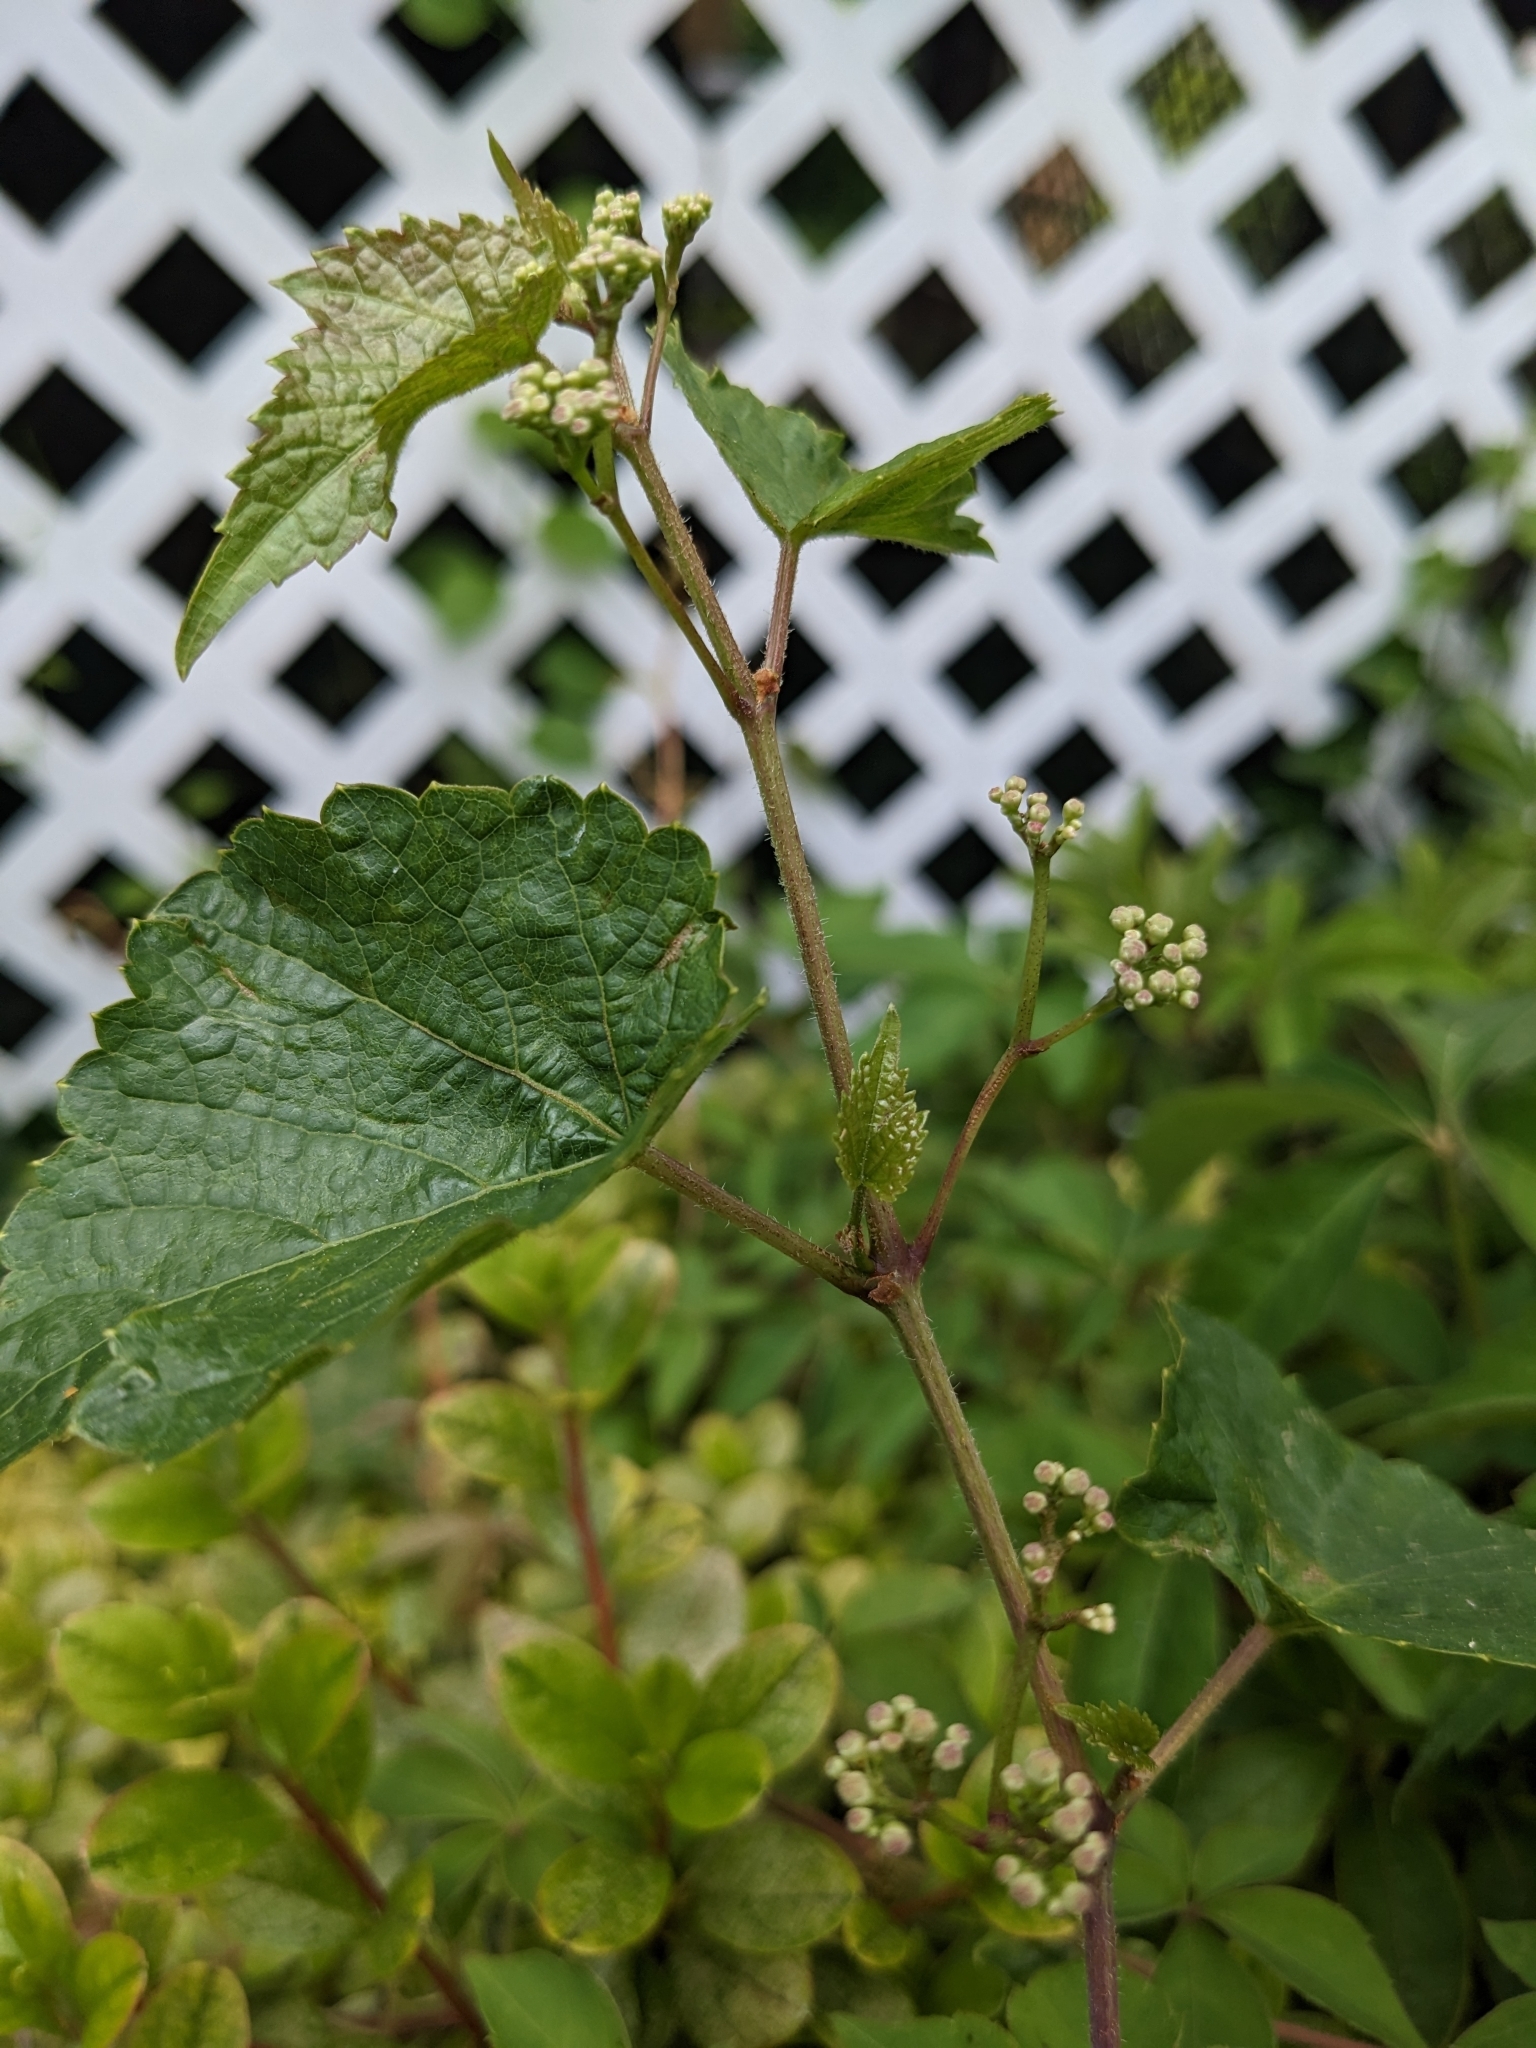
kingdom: Plantae
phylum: Tracheophyta
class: Magnoliopsida
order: Vitales
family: Vitaceae
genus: Ampelopsis
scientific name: Ampelopsis glandulosa
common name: Amur peppervine
